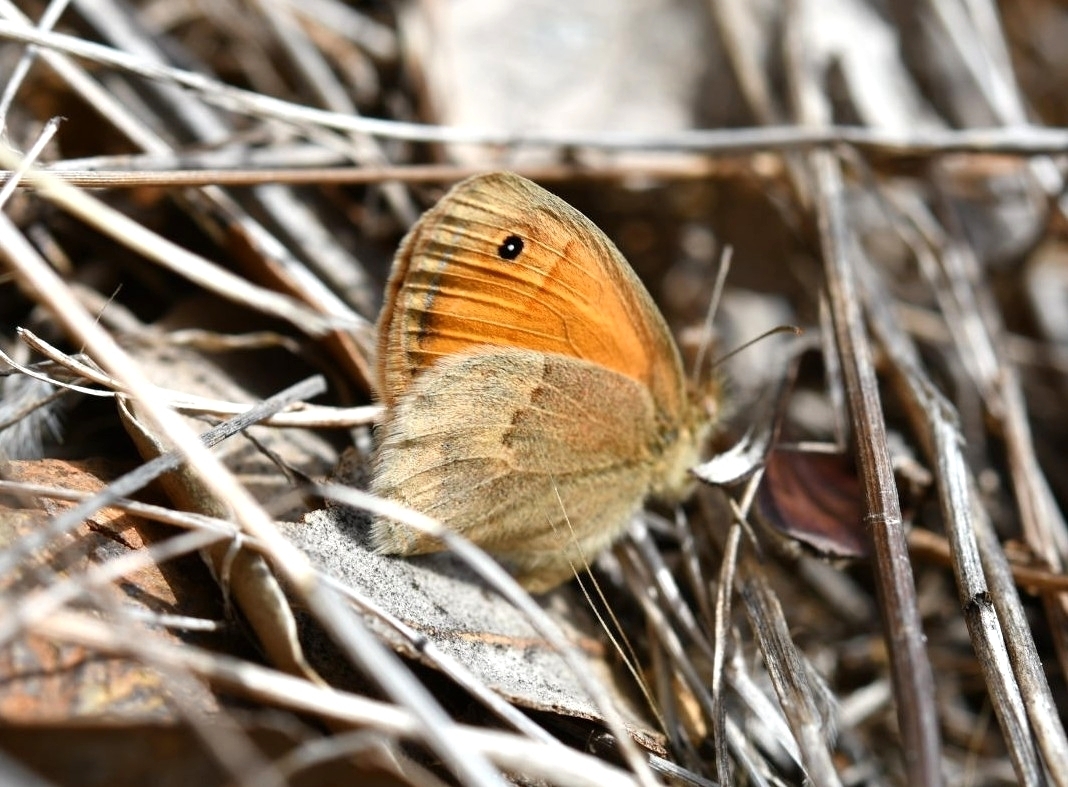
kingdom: Animalia
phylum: Arthropoda
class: Insecta
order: Lepidoptera
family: Nymphalidae
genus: Coenonympha
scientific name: Coenonympha pamphilus
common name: Small heath
